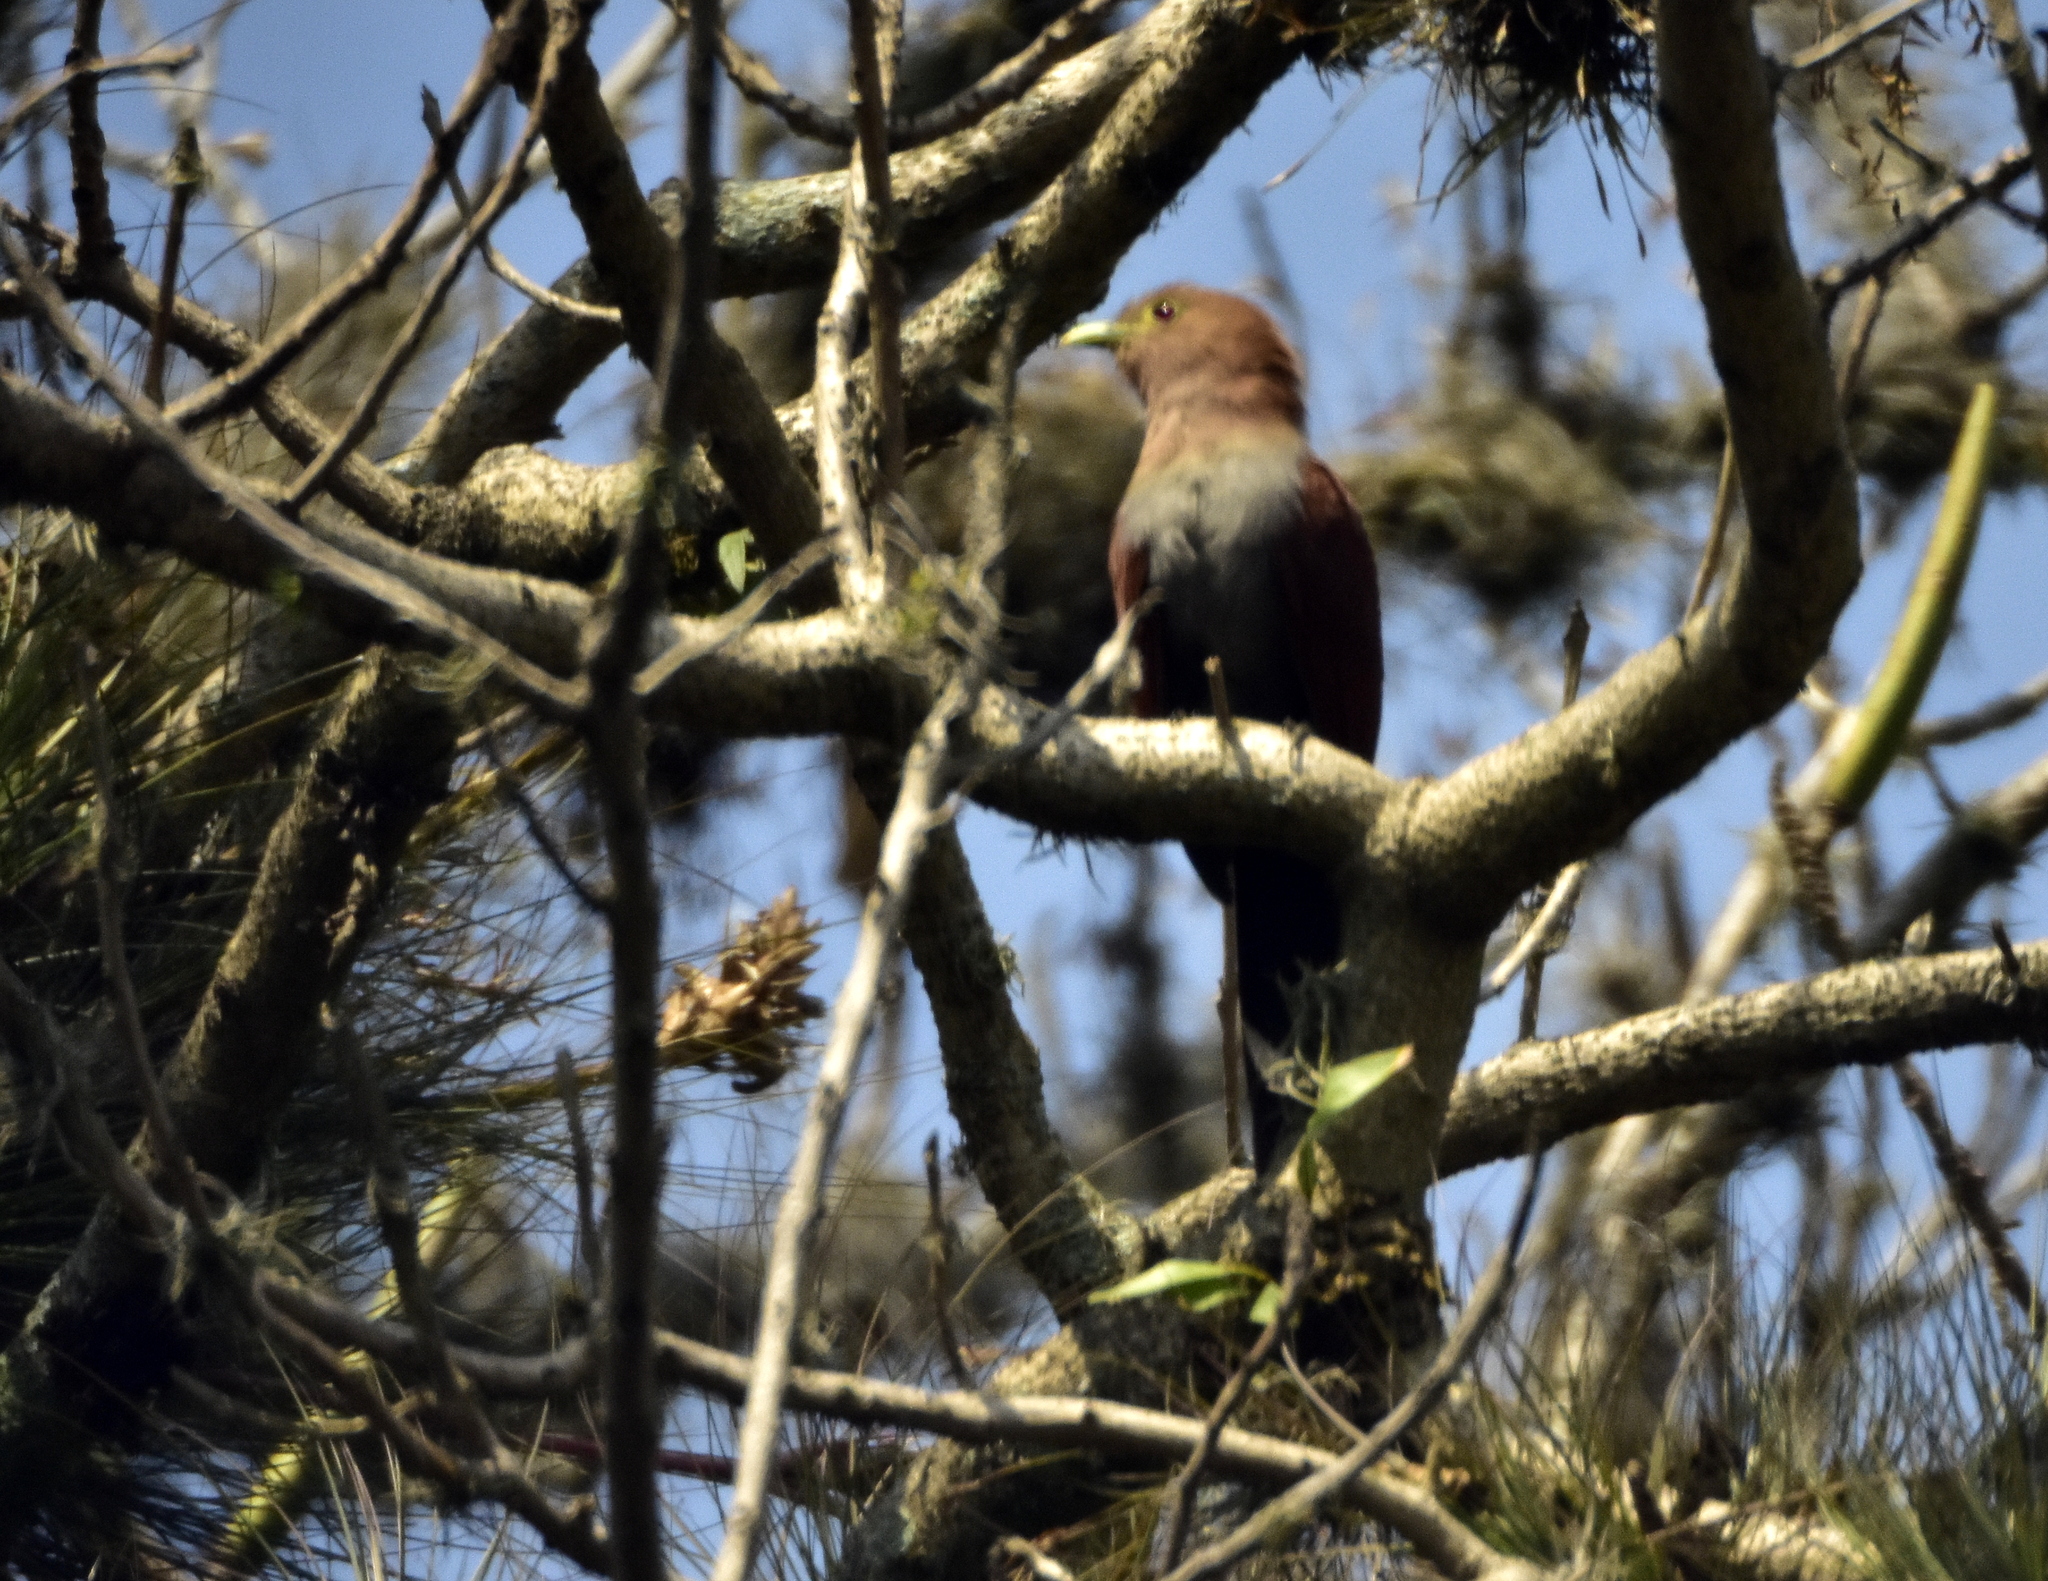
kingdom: Animalia
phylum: Chordata
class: Aves
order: Cuculiformes
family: Cuculidae
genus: Piaya
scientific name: Piaya cayana
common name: Squirrel cuckoo
